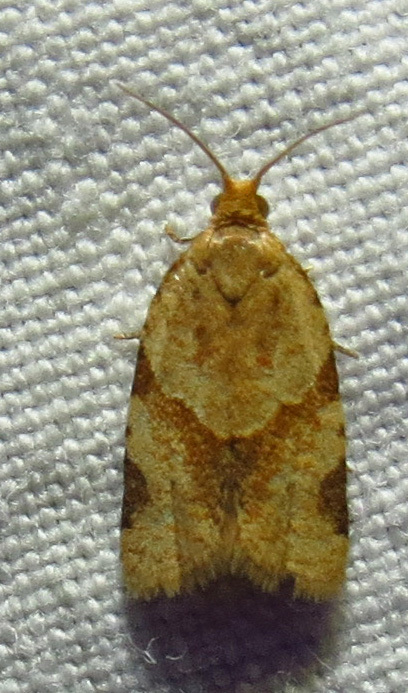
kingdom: Animalia
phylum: Arthropoda
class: Insecta
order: Lepidoptera
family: Tortricidae
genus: Clepsis
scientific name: Clepsis peritana
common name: Garden tortrix
